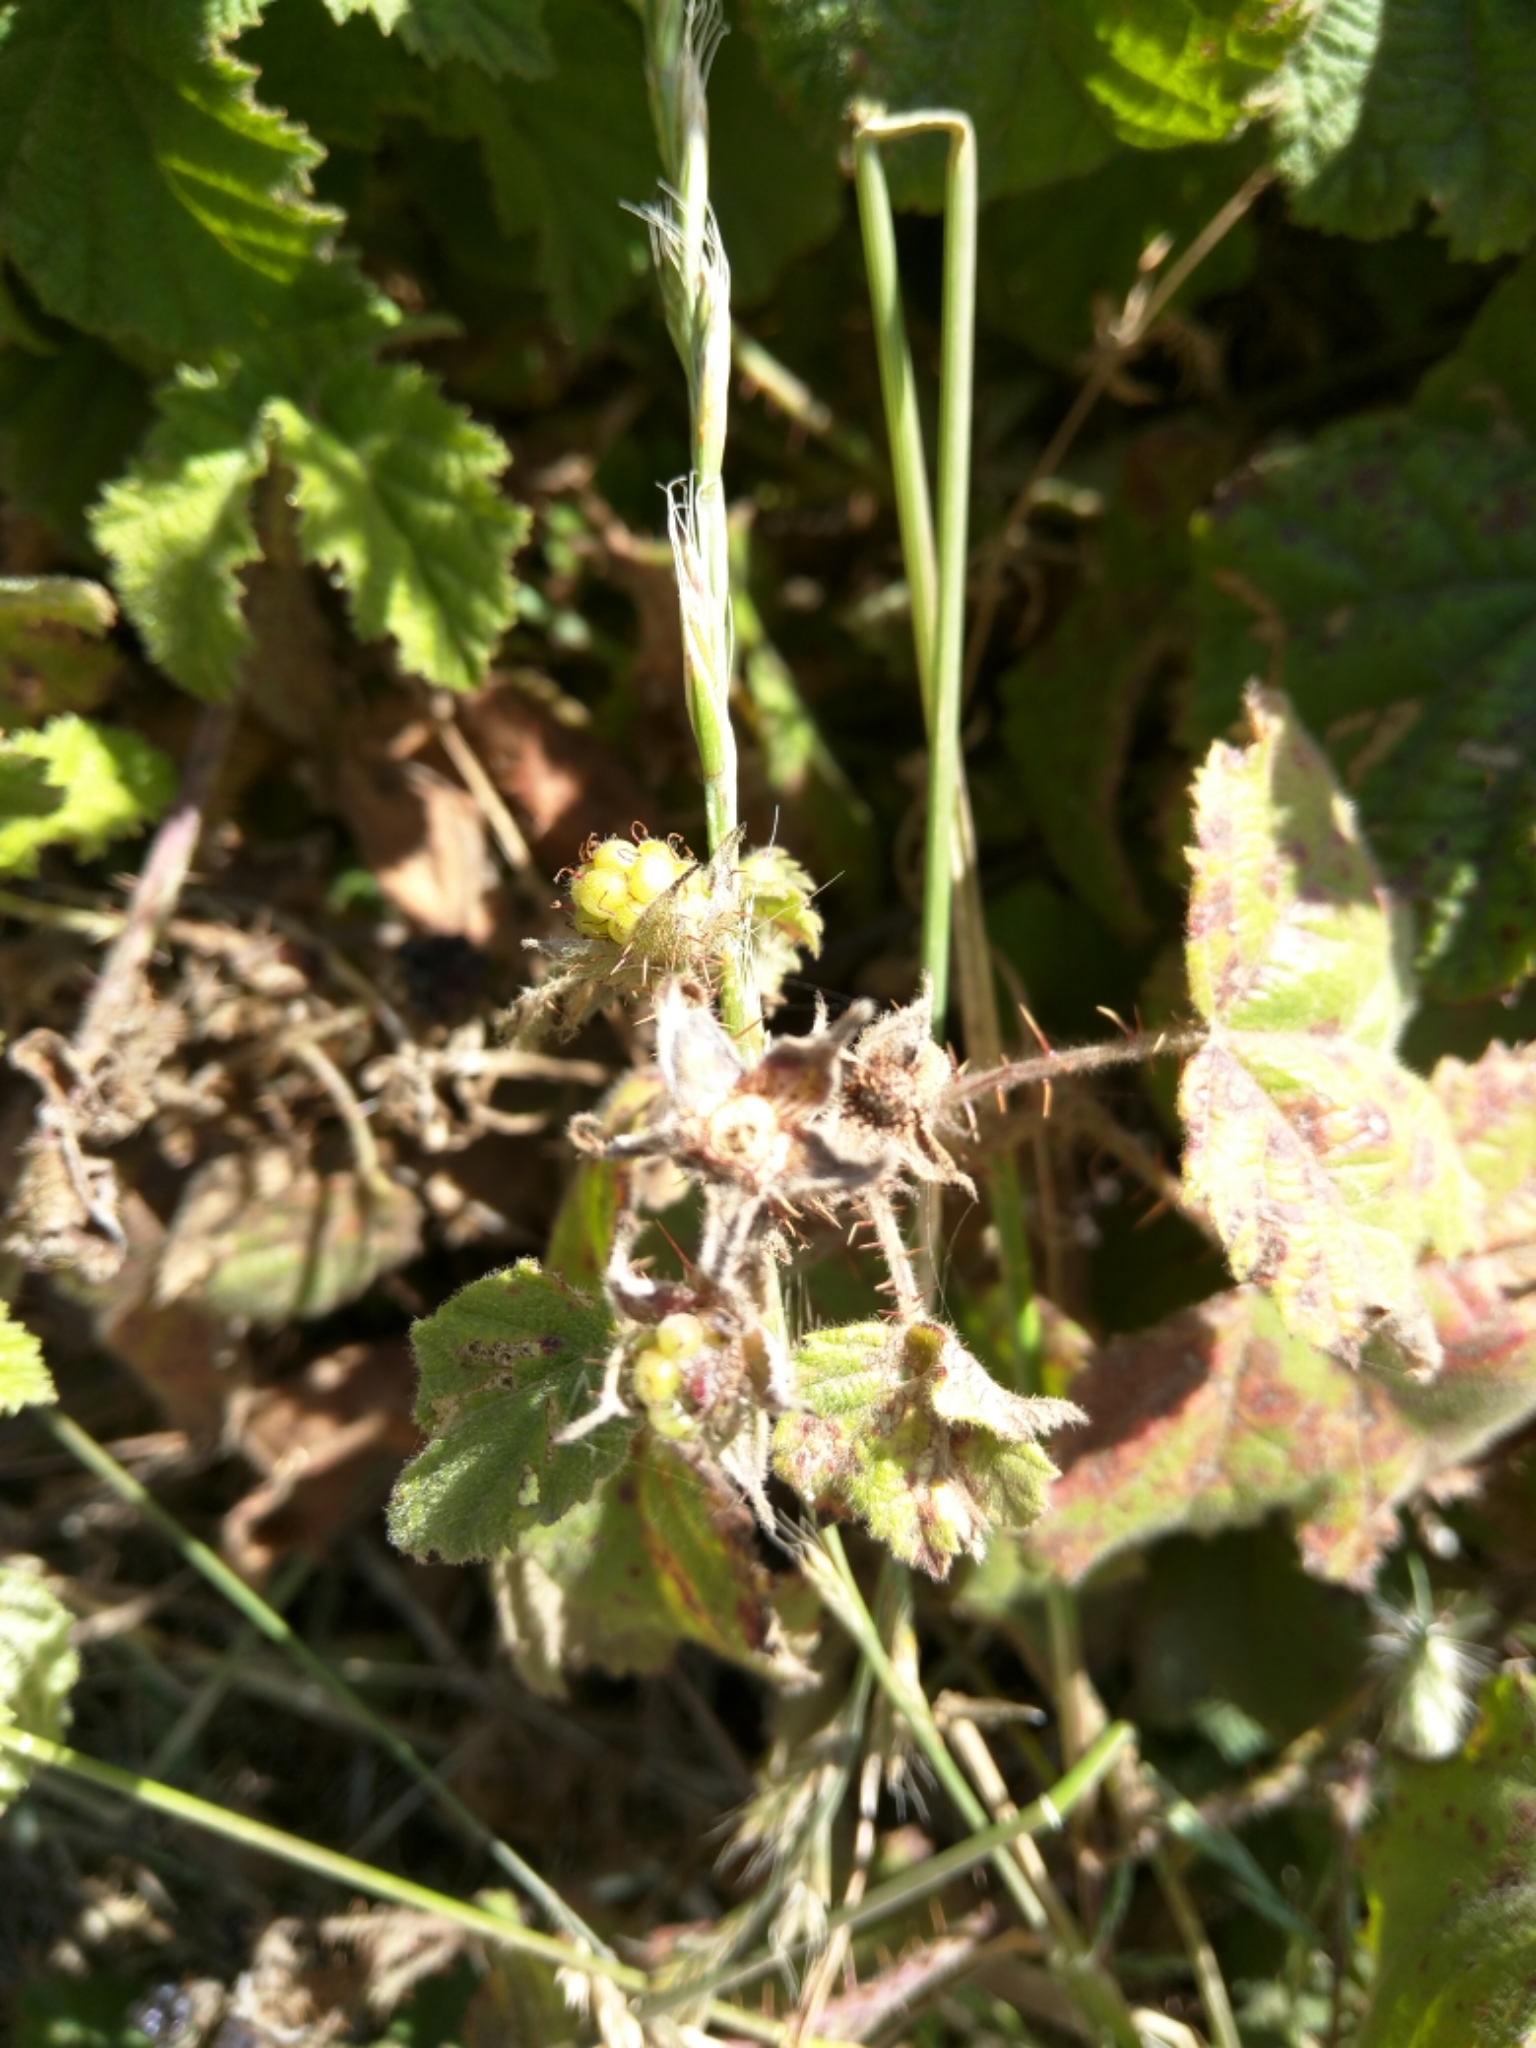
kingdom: Plantae
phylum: Tracheophyta
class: Magnoliopsida
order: Rosales
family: Rosaceae
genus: Rubus
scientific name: Rubus ursinus
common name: Pacific blackberry
